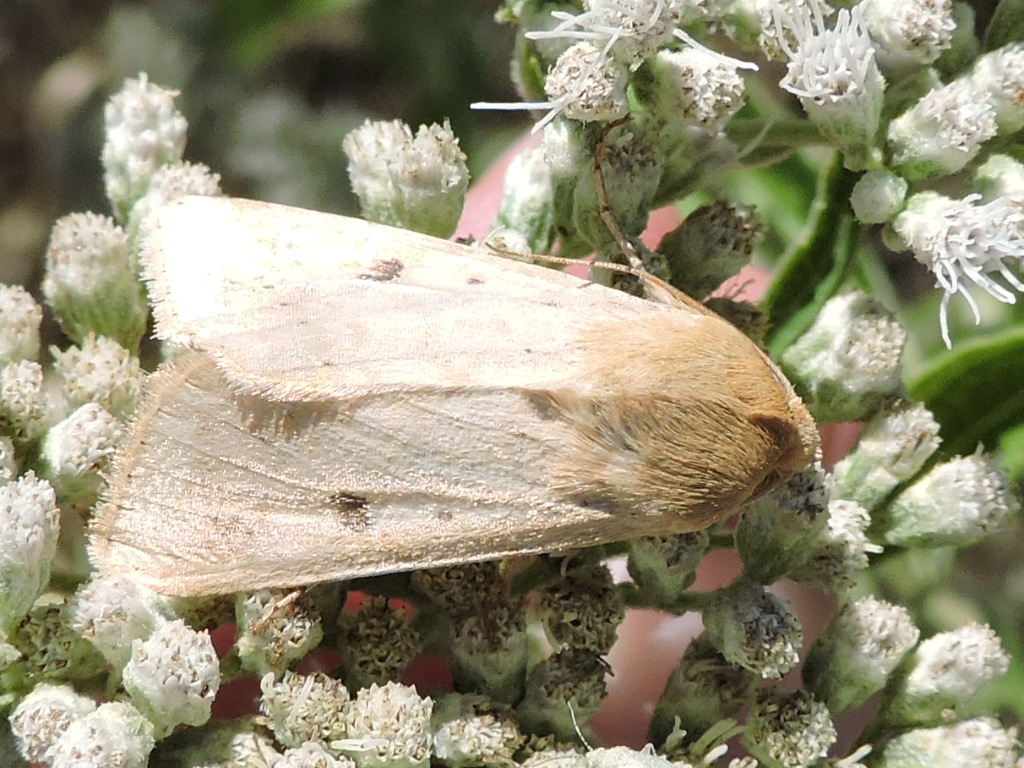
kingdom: Animalia
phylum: Arthropoda
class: Insecta
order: Lepidoptera
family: Noctuidae
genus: Helicoverpa
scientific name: Helicoverpa zea
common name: Bollworm
